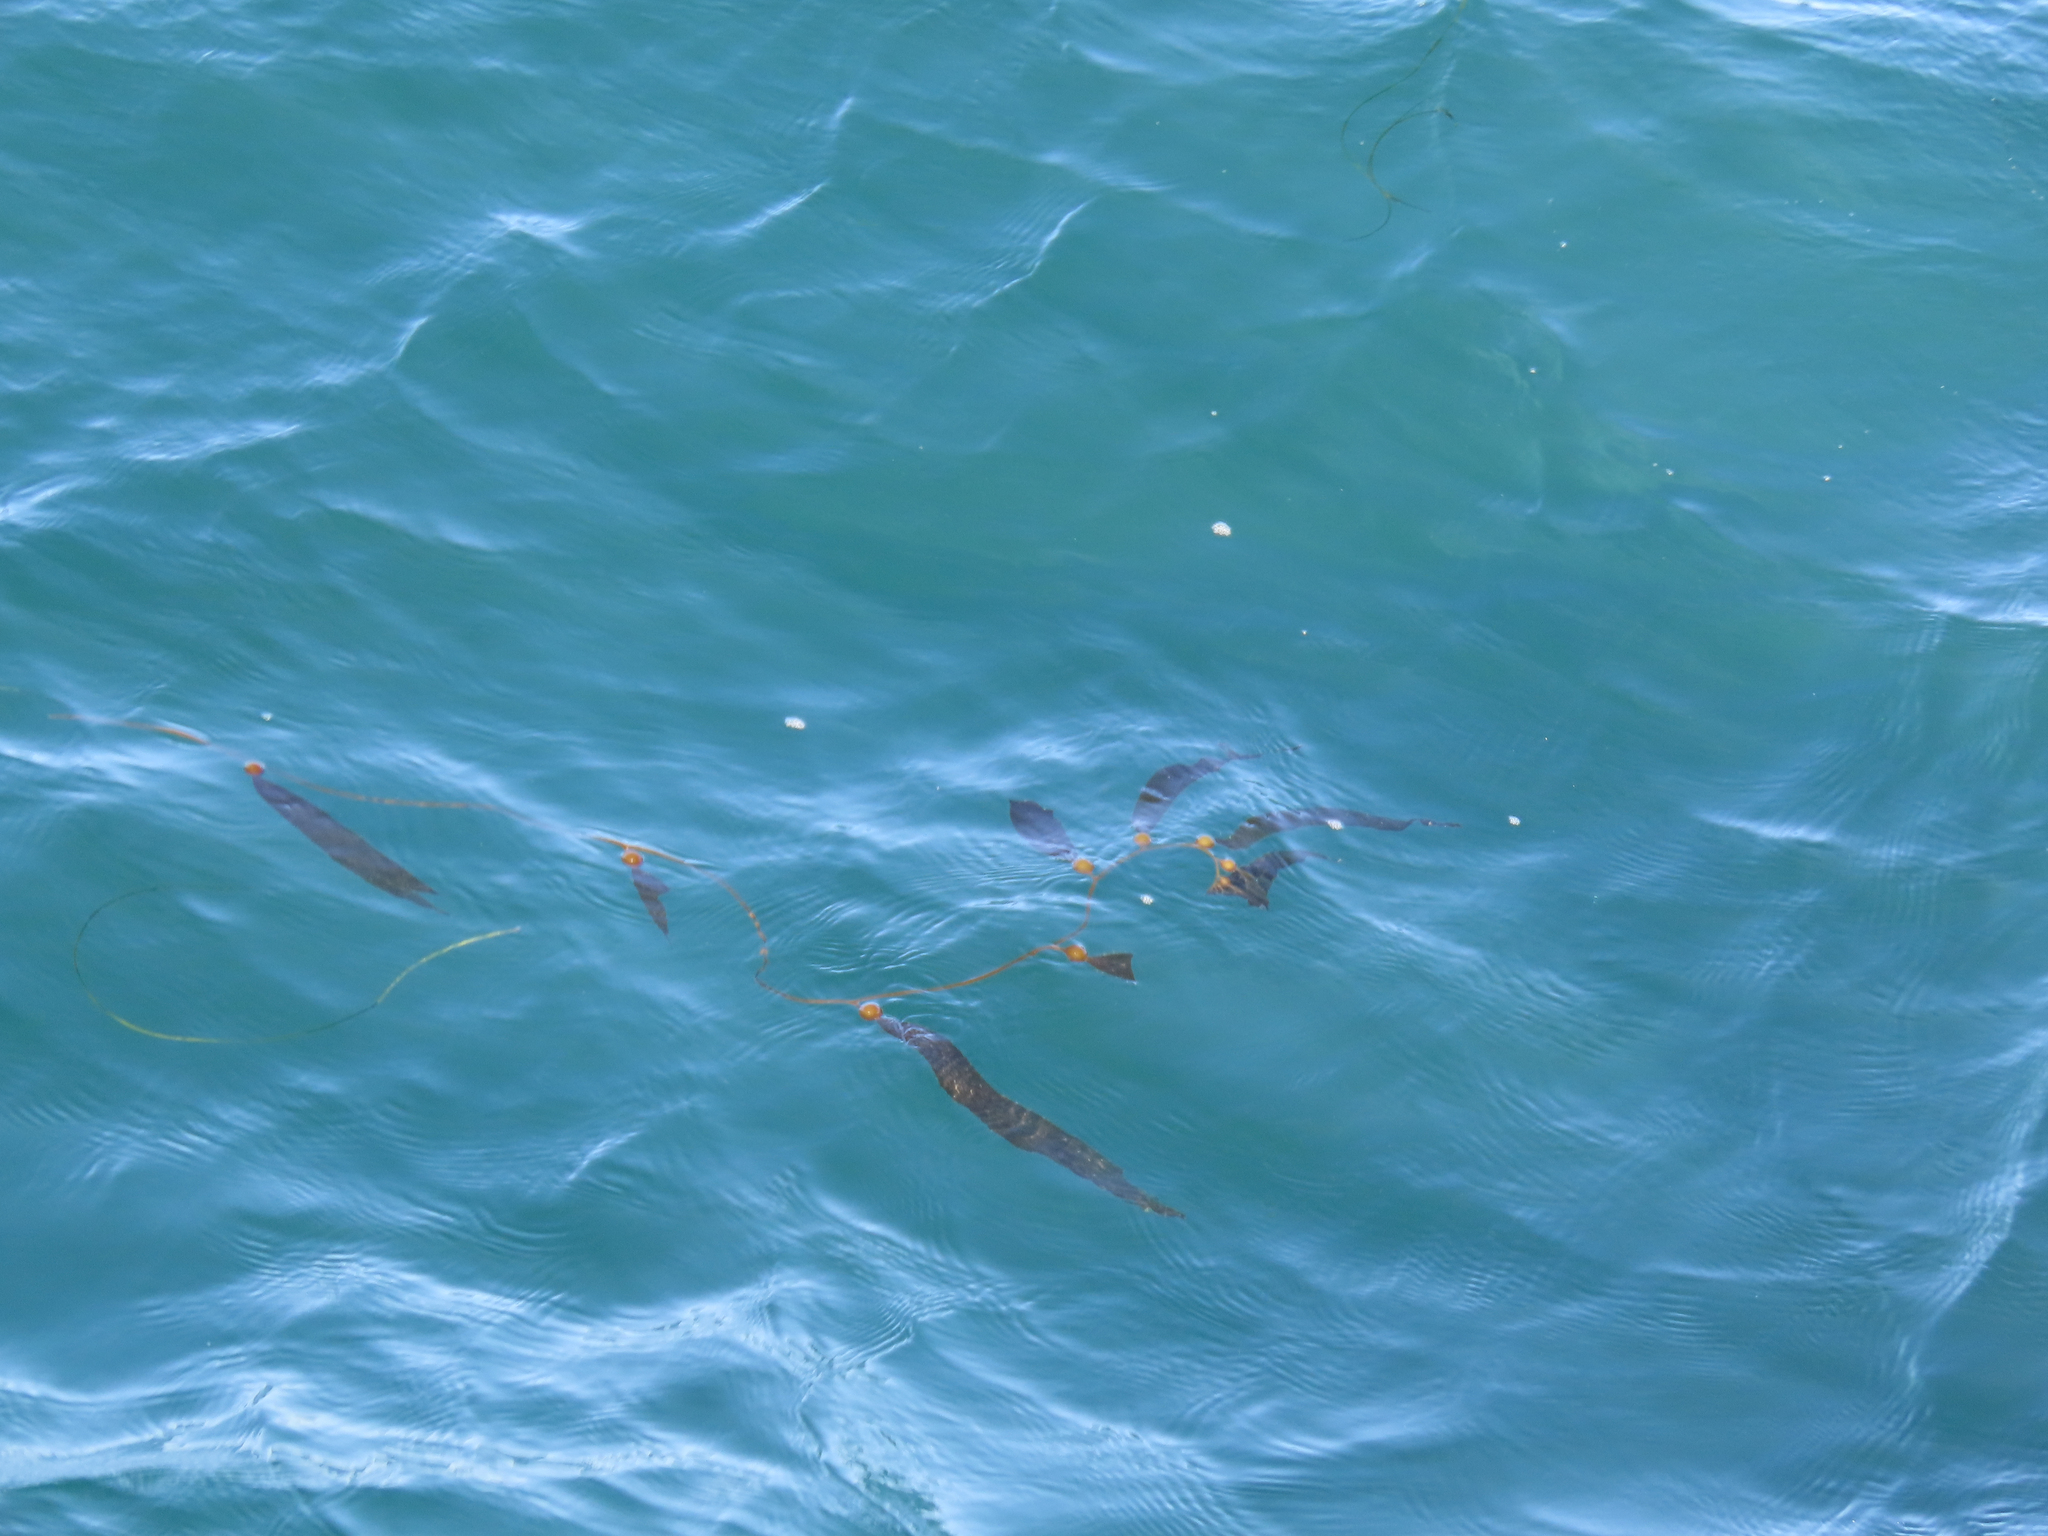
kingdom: Chromista
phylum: Ochrophyta
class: Phaeophyceae
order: Laminariales
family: Laminariaceae
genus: Macrocystis
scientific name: Macrocystis pyrifera
